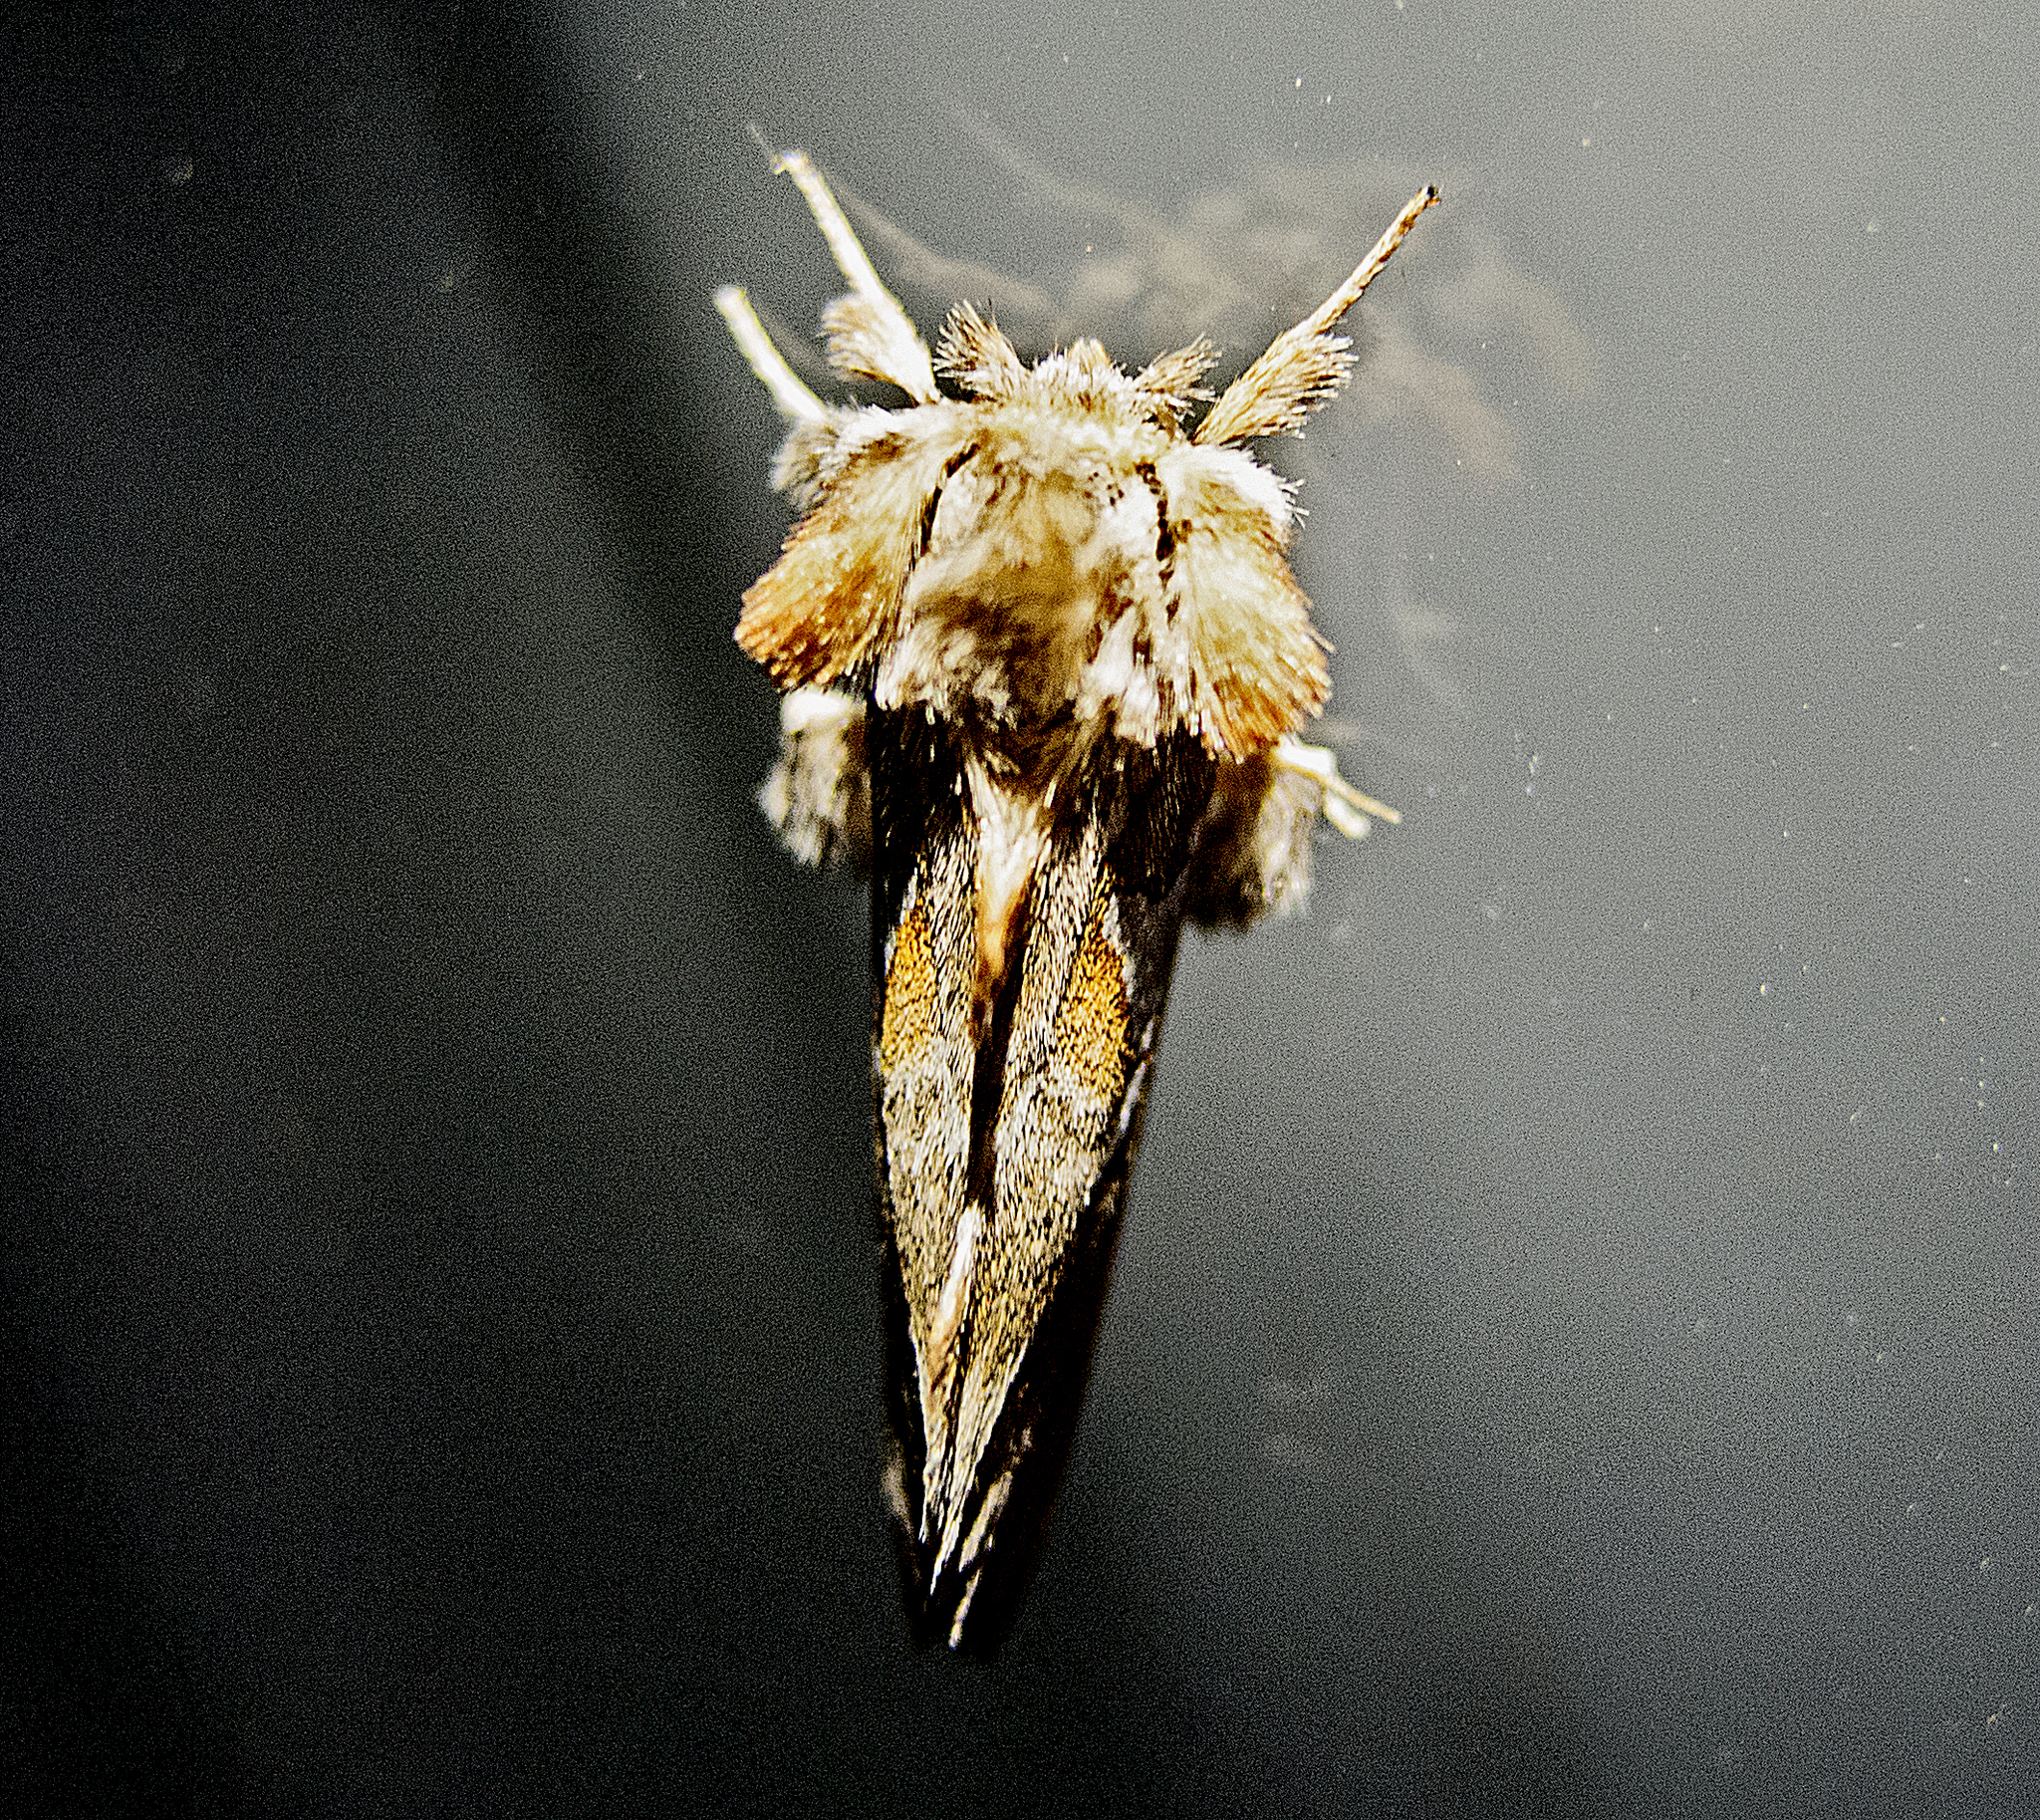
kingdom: Animalia
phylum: Arthropoda
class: Insecta
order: Lepidoptera
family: Notodontidae
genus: Spatalia
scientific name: Spatalia argentina
